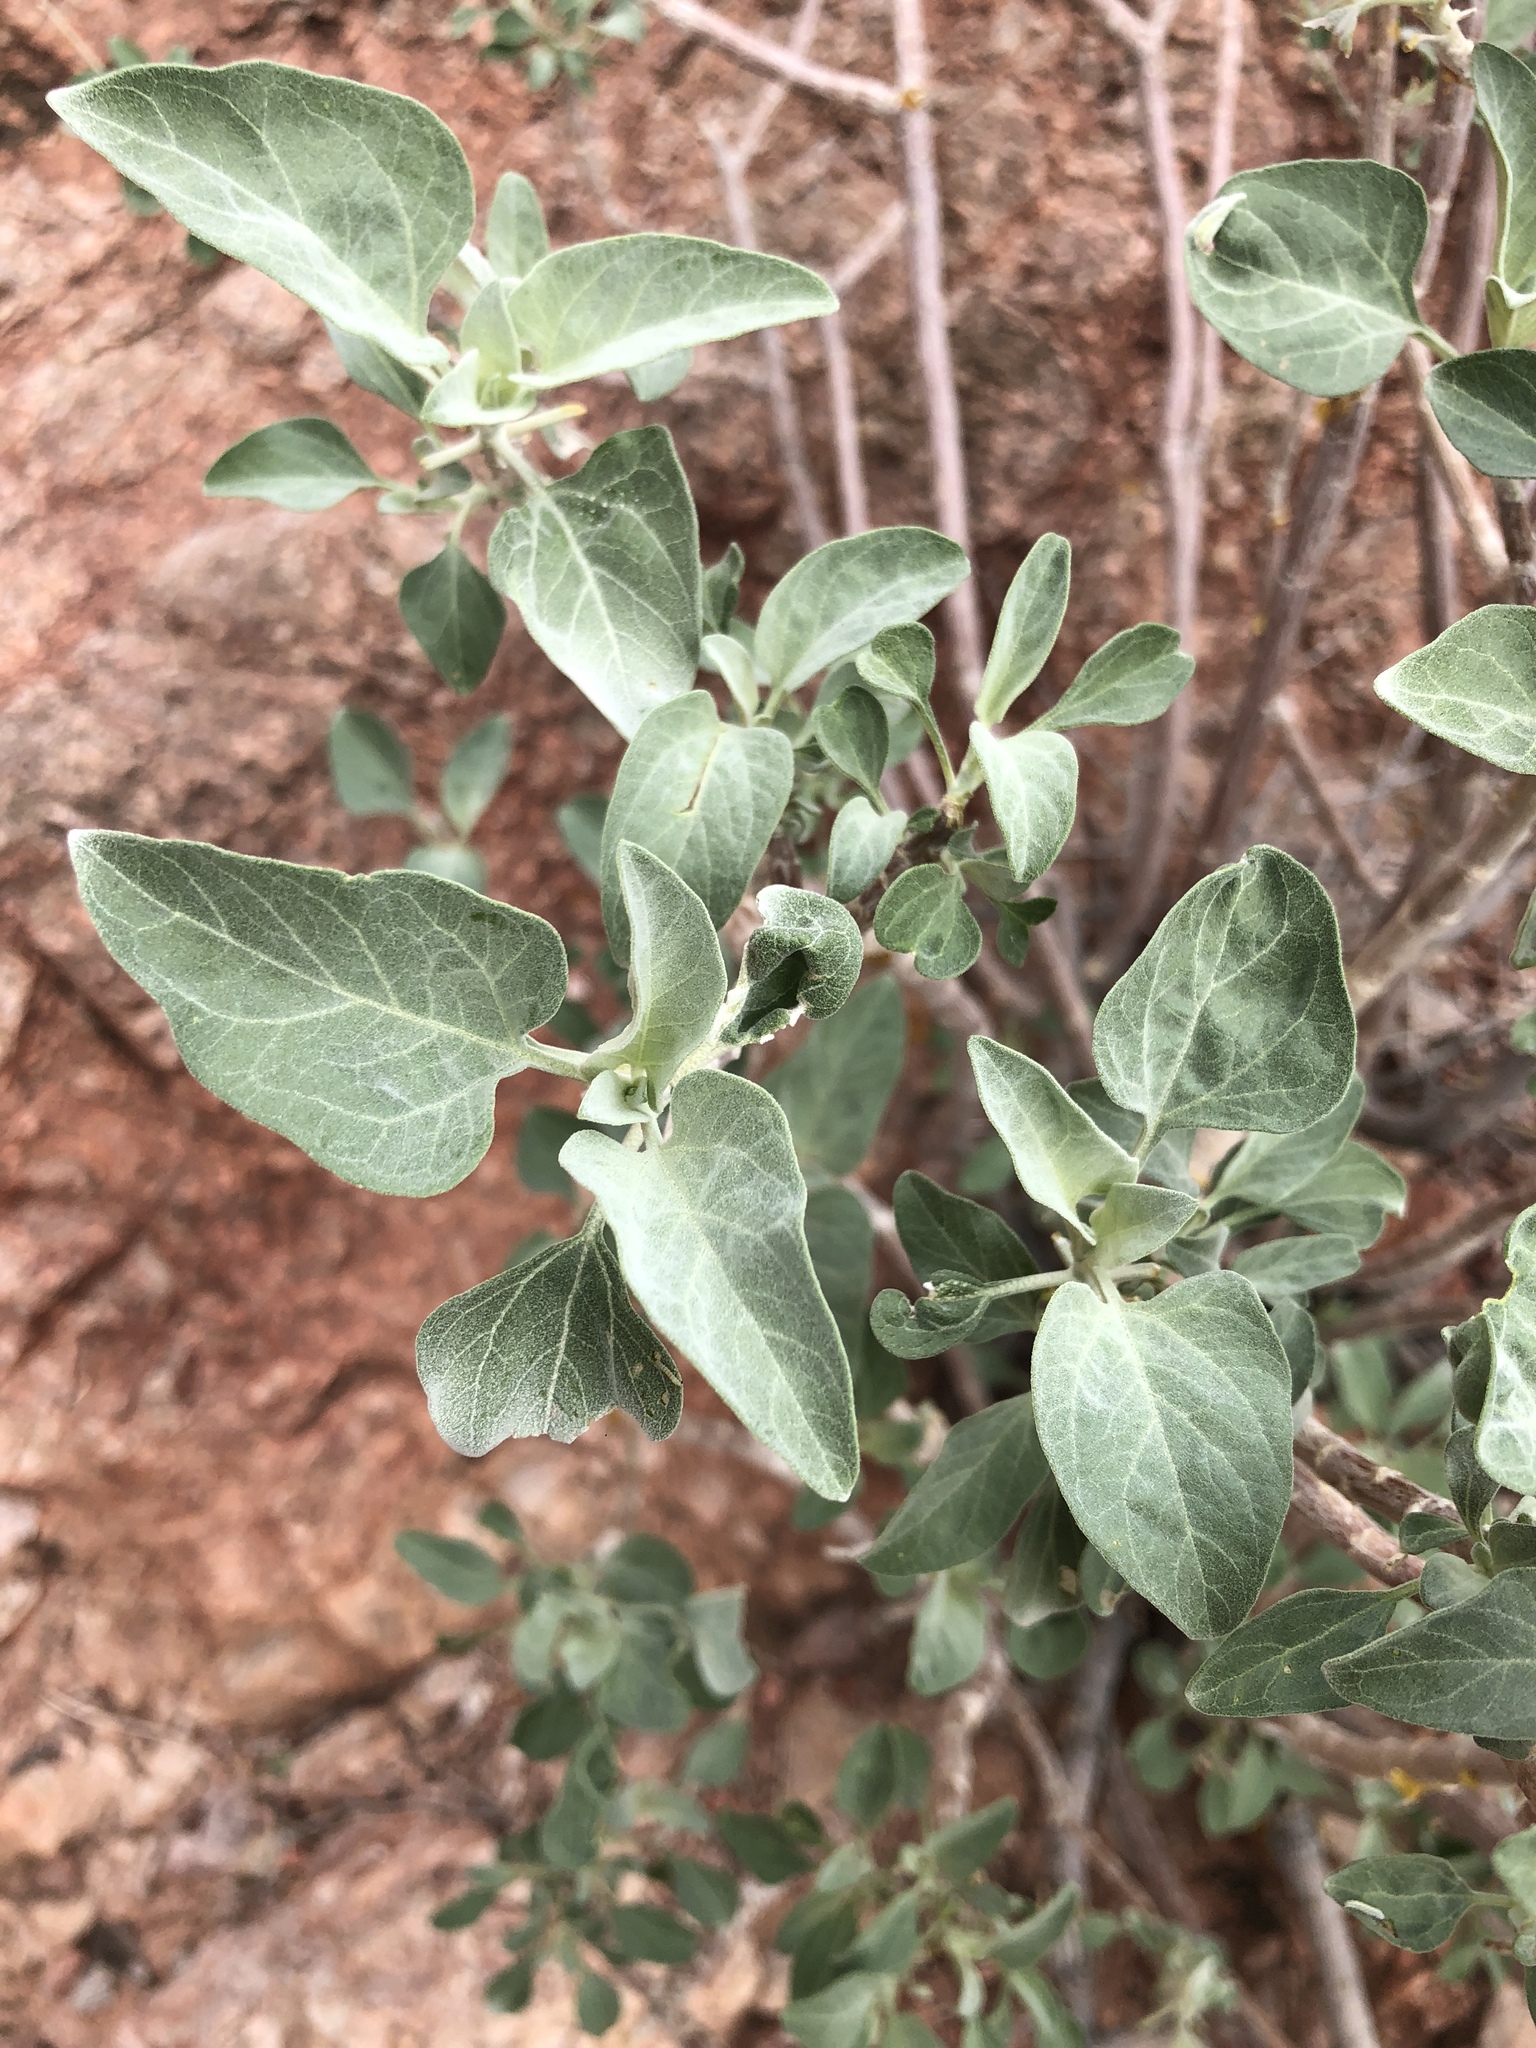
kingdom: Plantae
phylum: Tracheophyta
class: Magnoliopsida
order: Asterales
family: Asteraceae
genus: Encelia
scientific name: Encelia farinosa
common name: Brittlebush
